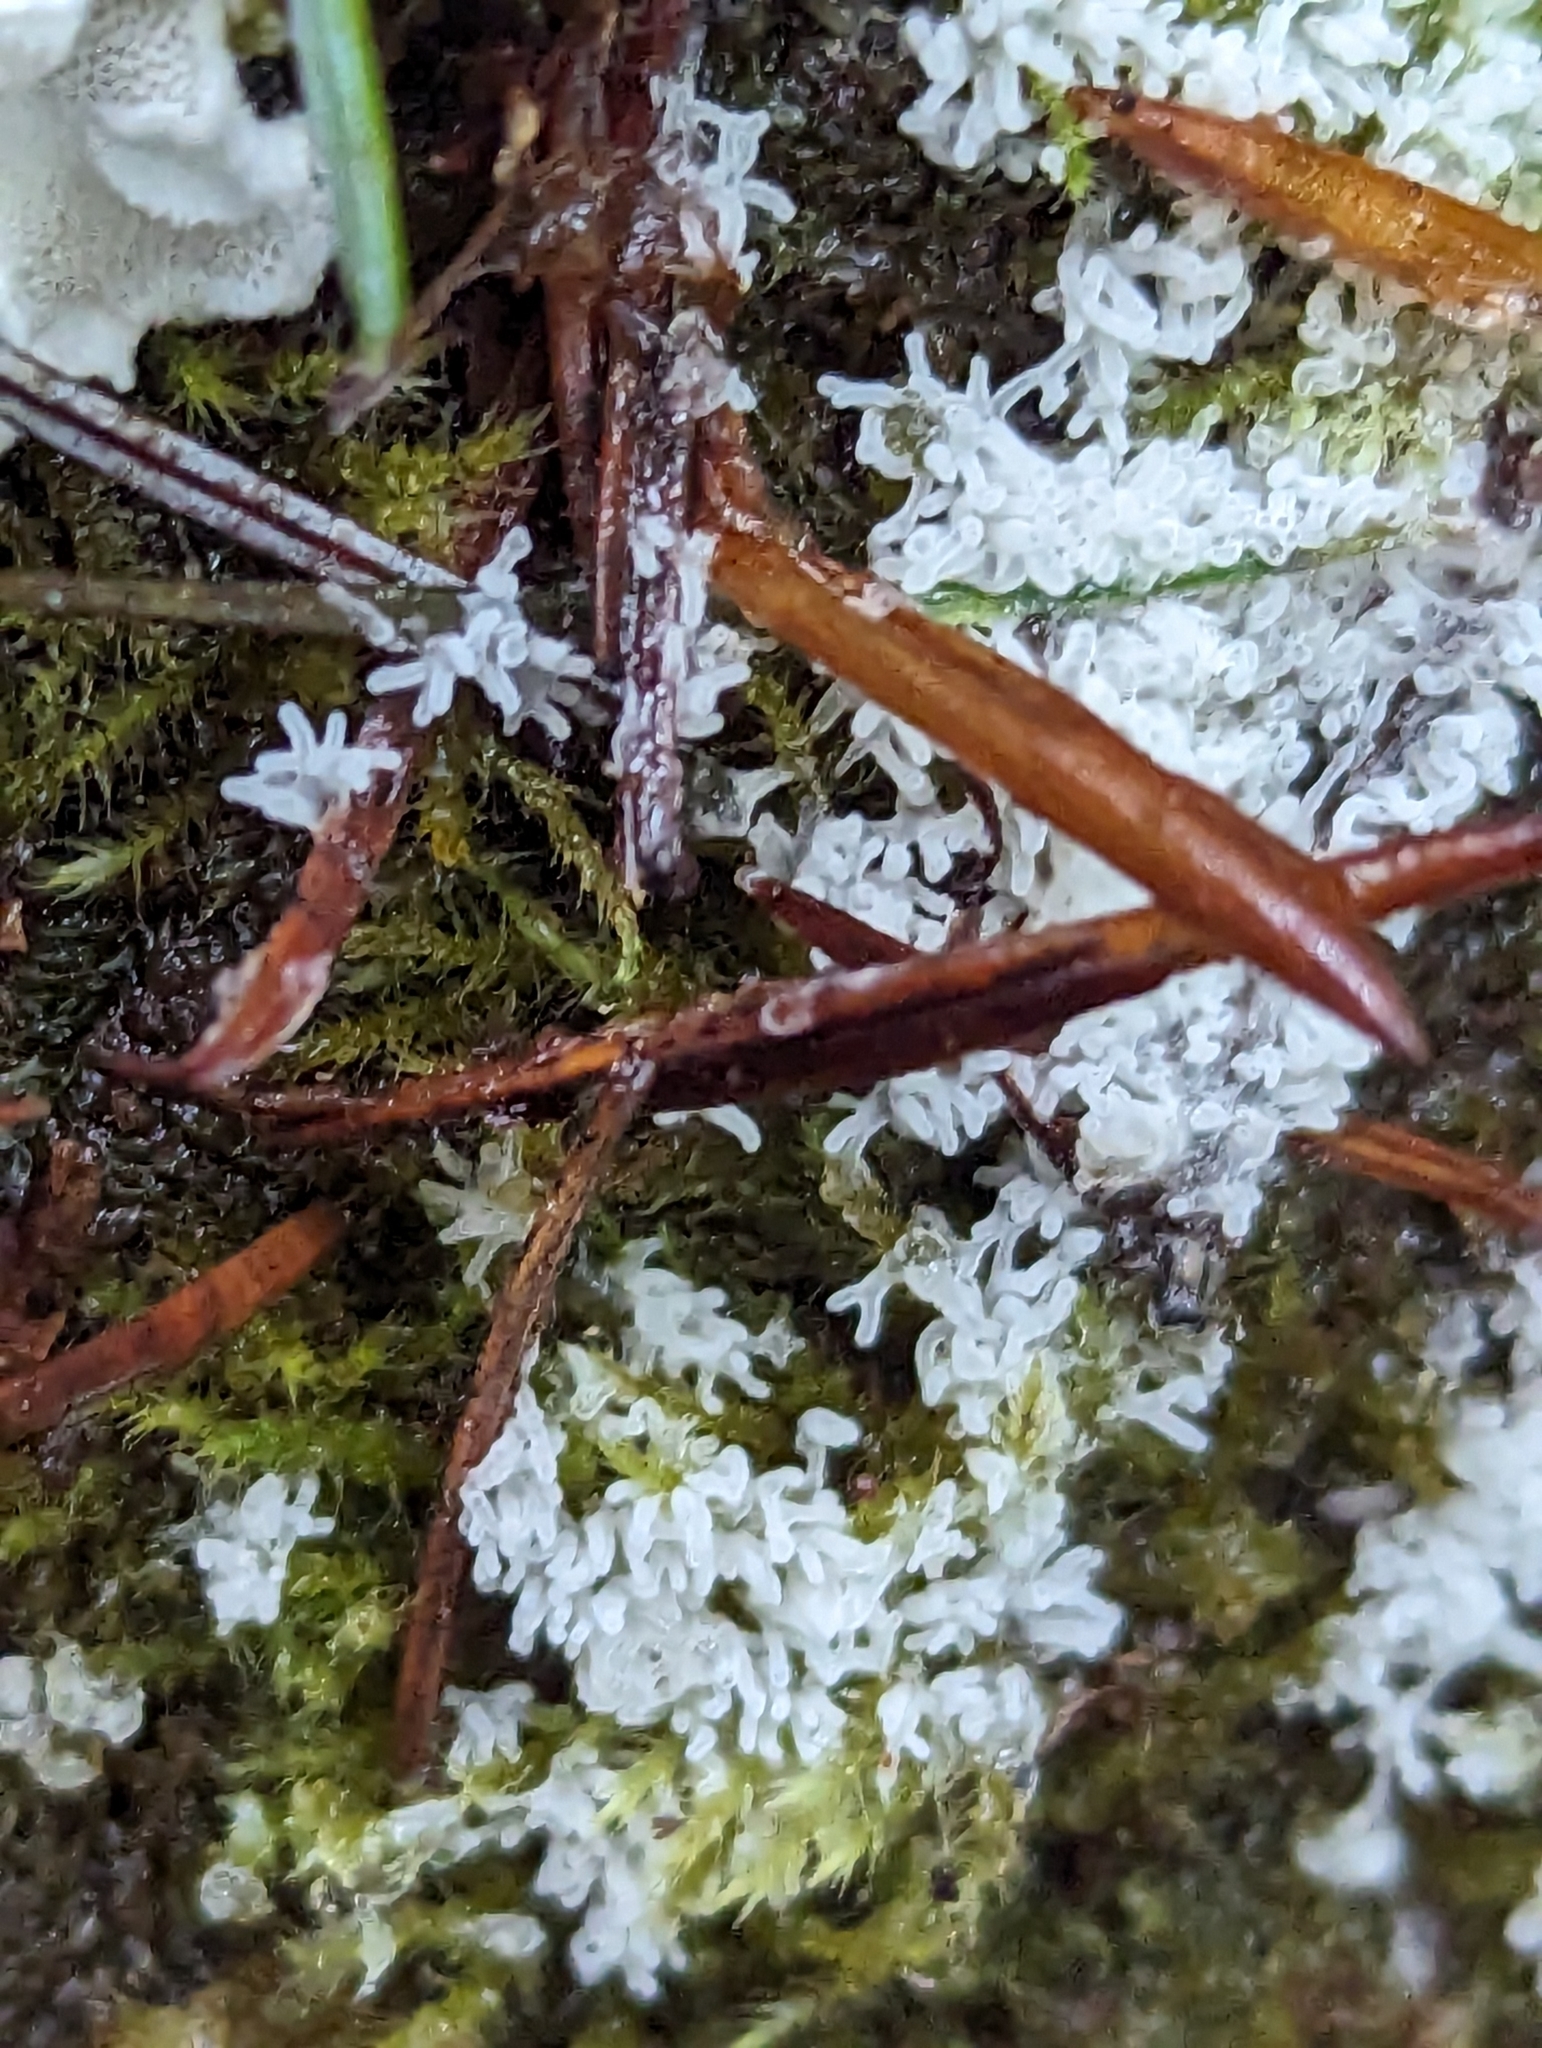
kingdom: Protozoa
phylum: Mycetozoa
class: Protosteliomycetes
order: Ceratiomyxales
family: Ceratiomyxaceae
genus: Ceratiomyxa
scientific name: Ceratiomyxa fruticulosa
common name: Honeycomb coral slime mold
